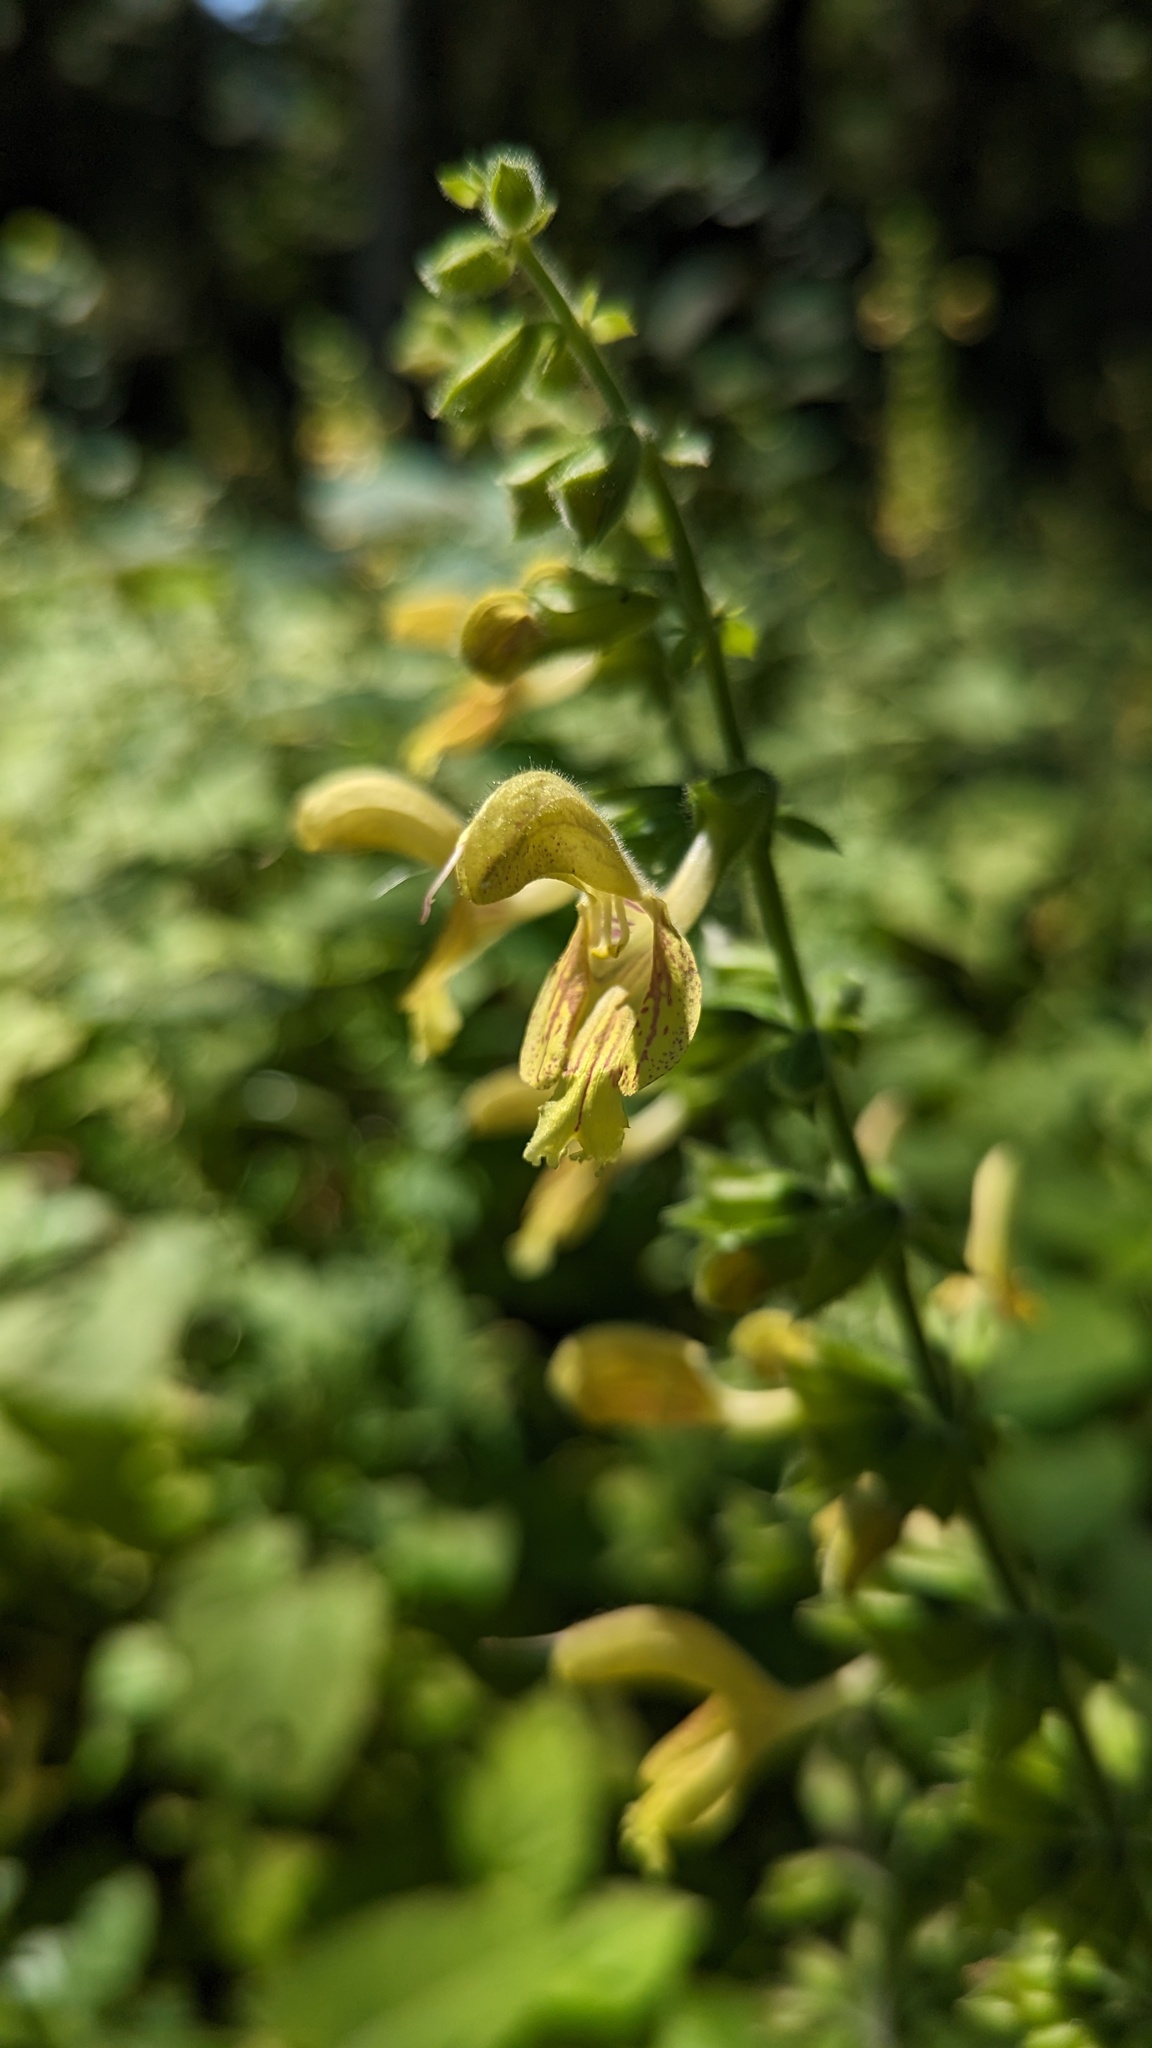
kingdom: Plantae
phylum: Tracheophyta
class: Magnoliopsida
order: Lamiales
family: Lamiaceae
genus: Salvia
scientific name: Salvia glutinosa
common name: Sticky clary
